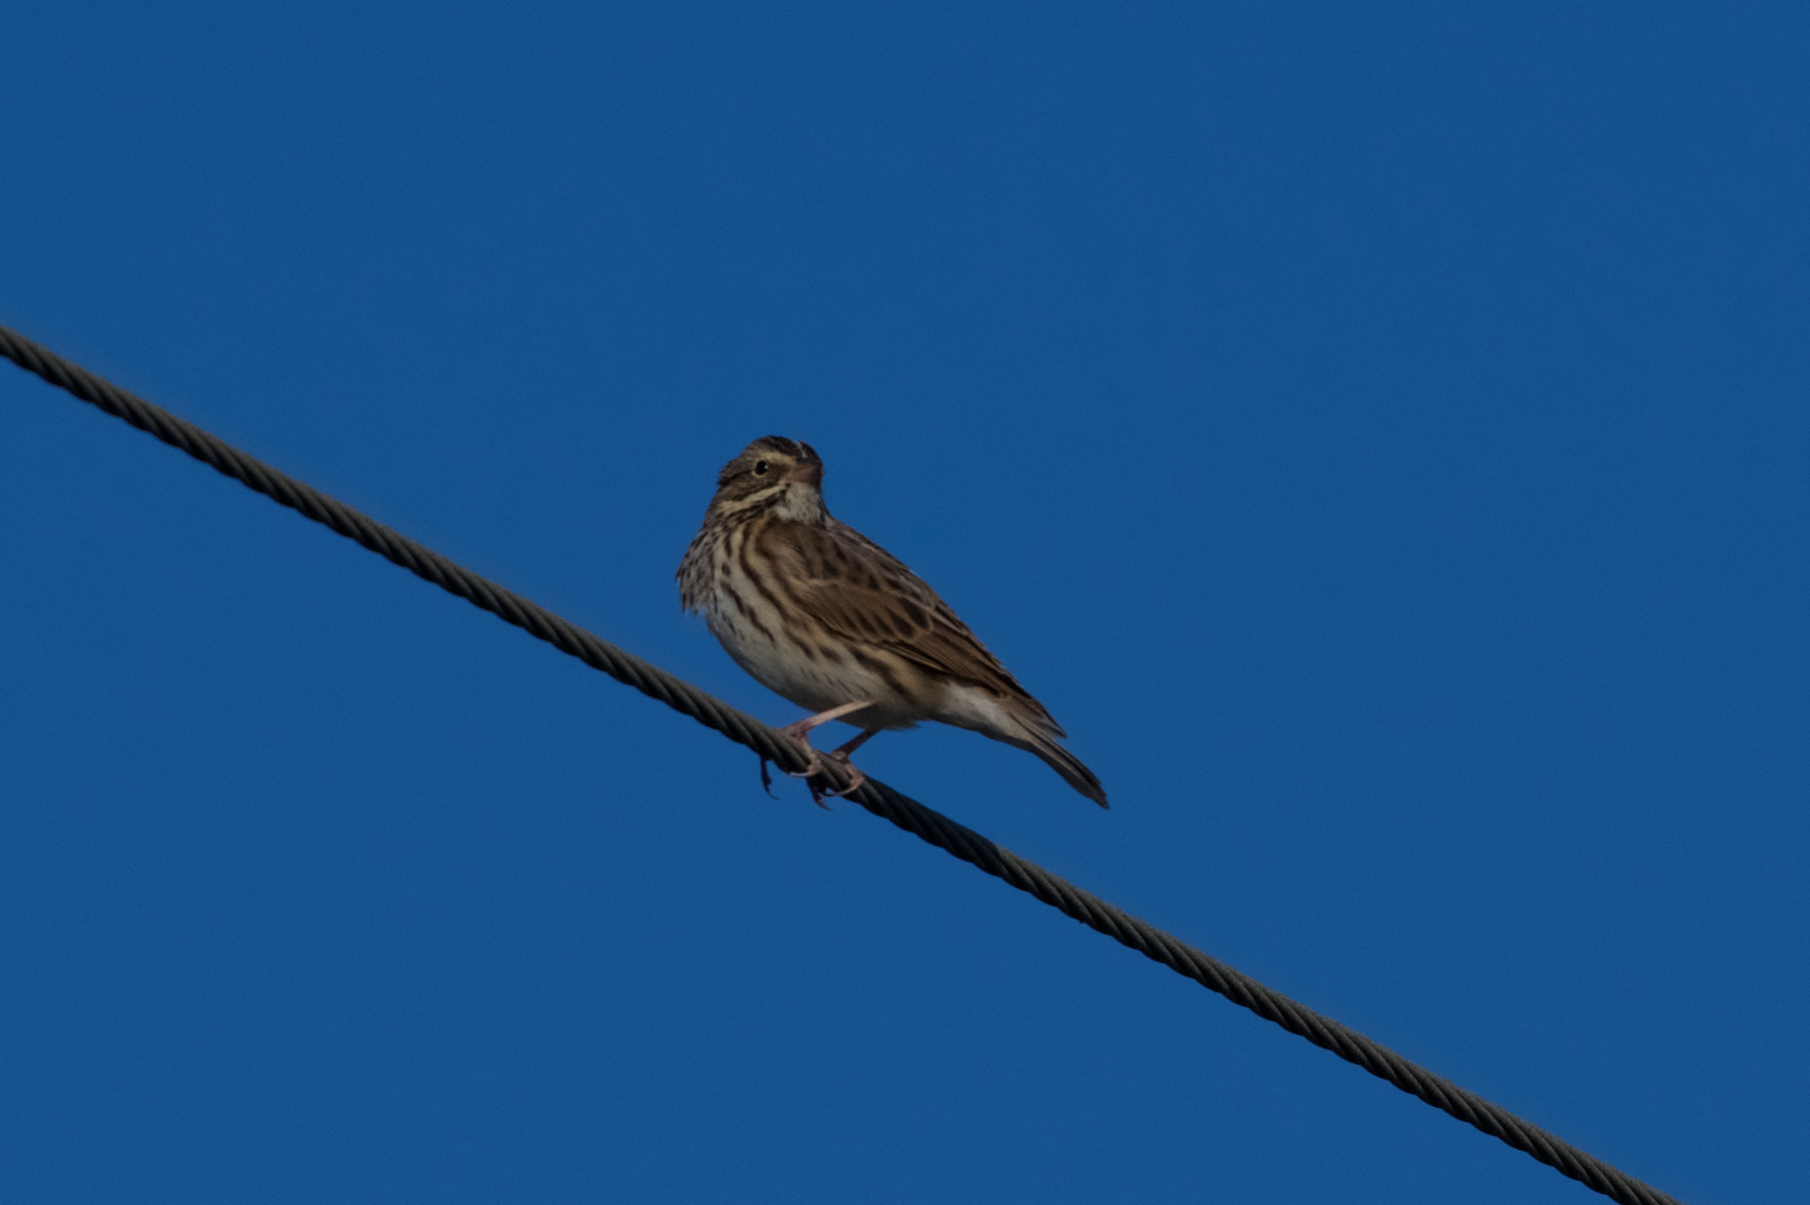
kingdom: Animalia
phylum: Chordata
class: Aves
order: Passeriformes
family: Passerellidae
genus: Passerculus
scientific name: Passerculus sandwichensis
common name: Savannah sparrow
